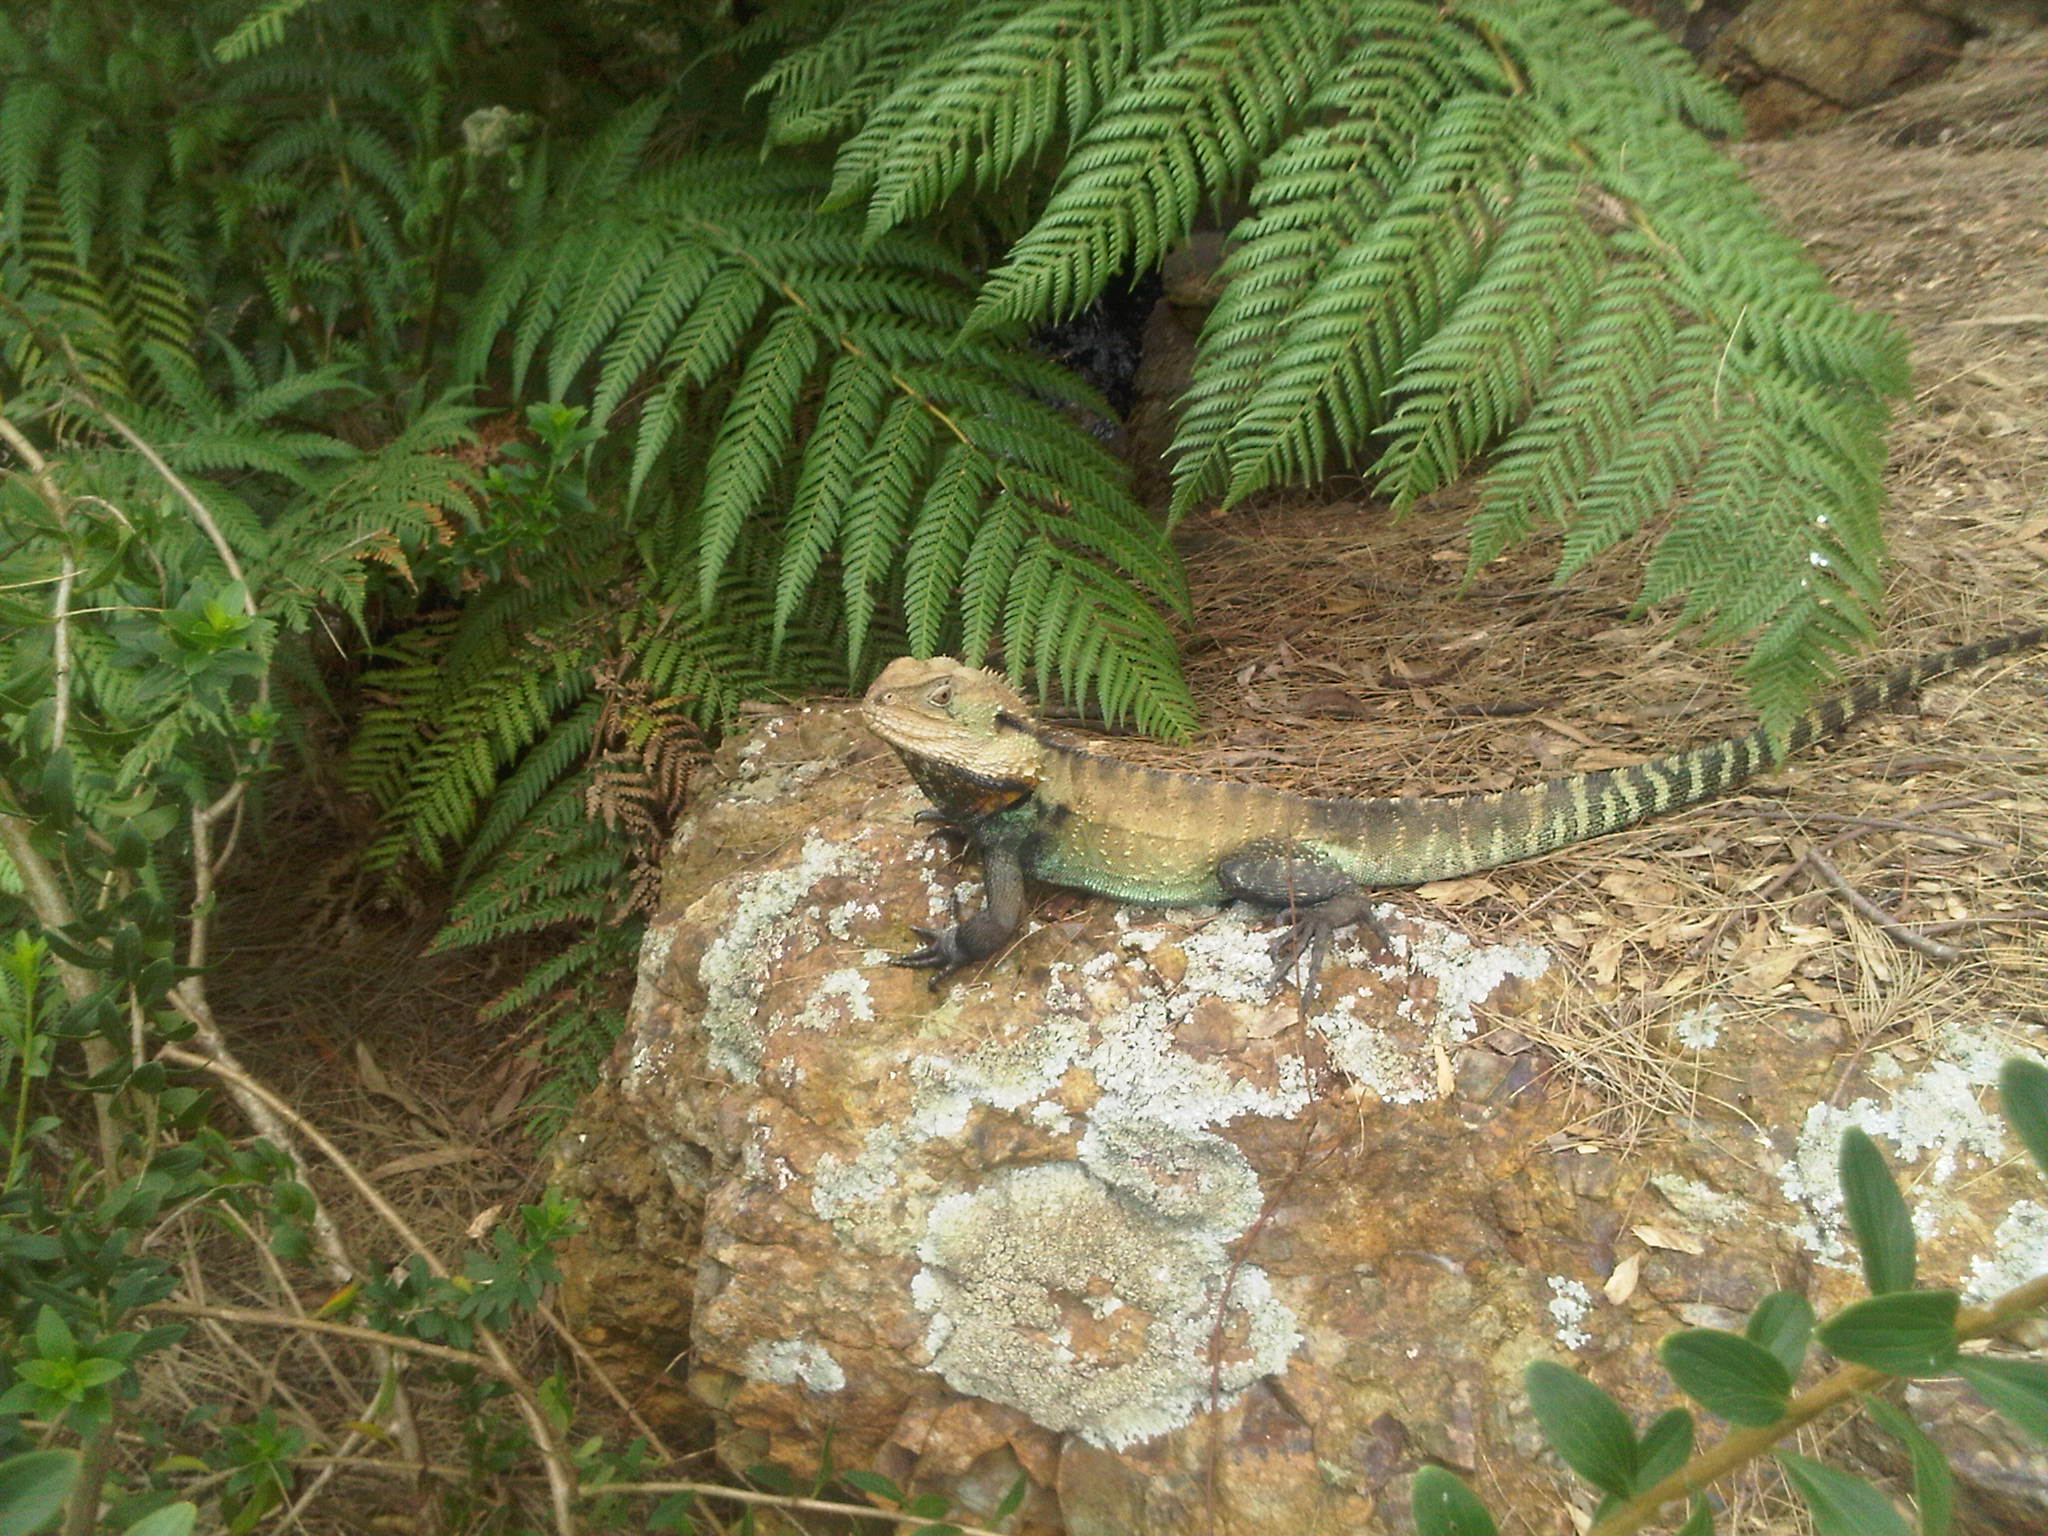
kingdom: Animalia
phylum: Chordata
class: Squamata
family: Agamidae
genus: Intellagama
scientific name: Intellagama lesueurii
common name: Eastern water dragon
